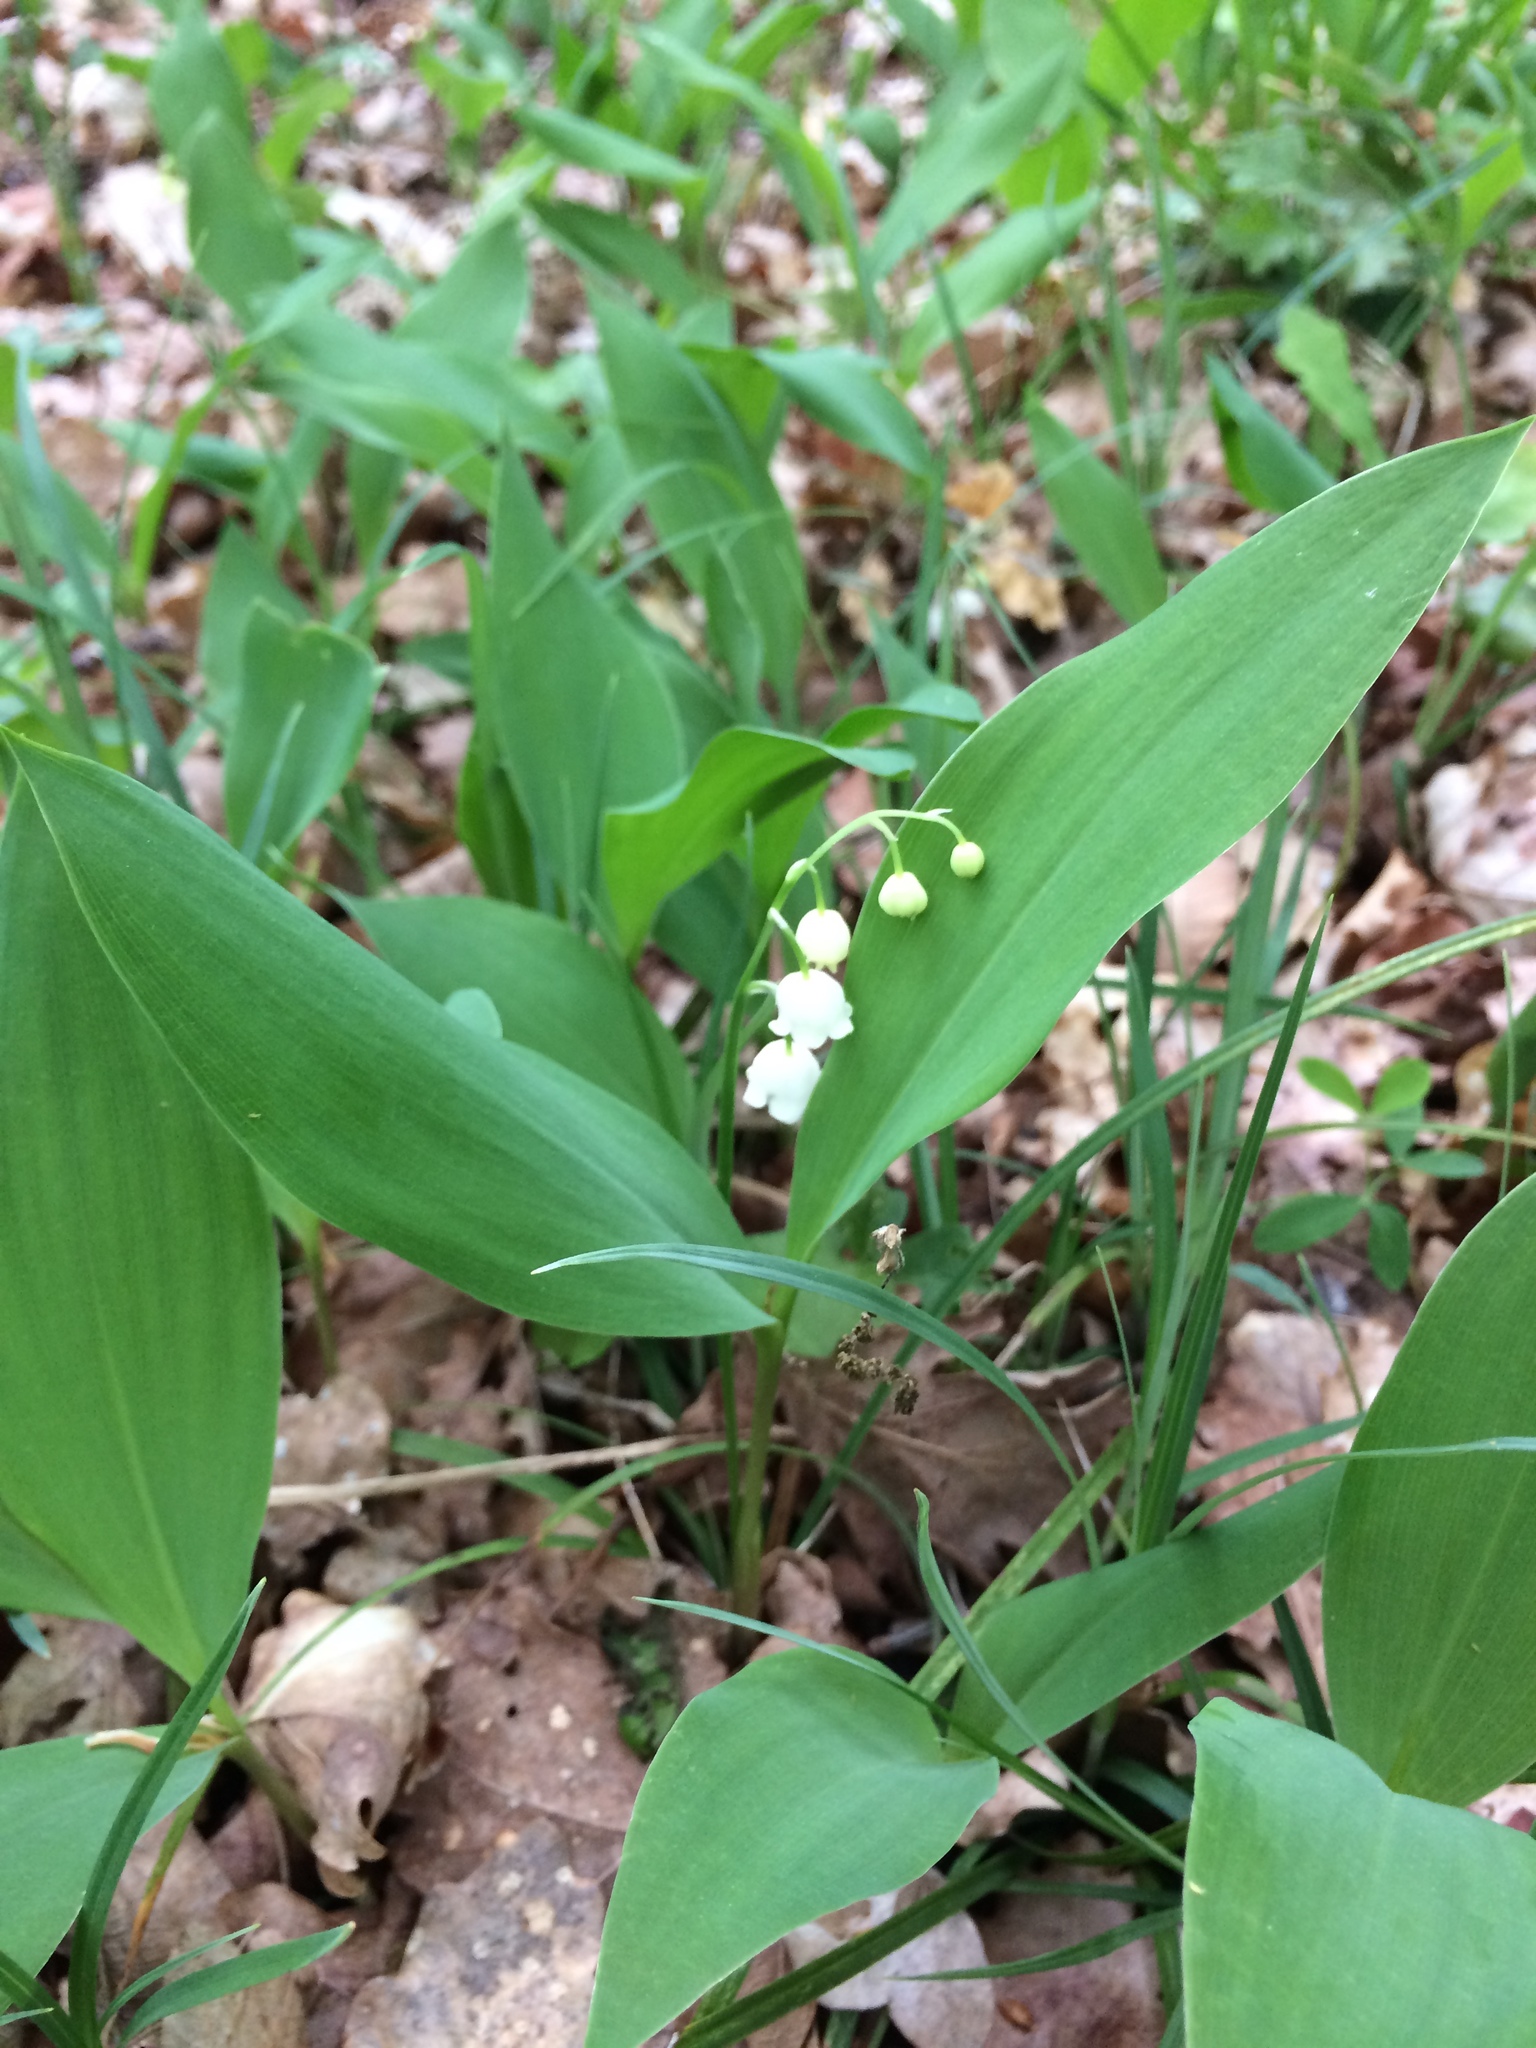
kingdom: Plantae
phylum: Tracheophyta
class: Liliopsida
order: Asparagales
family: Asparagaceae
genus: Convallaria
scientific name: Convallaria majalis
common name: Lily-of-the-valley
